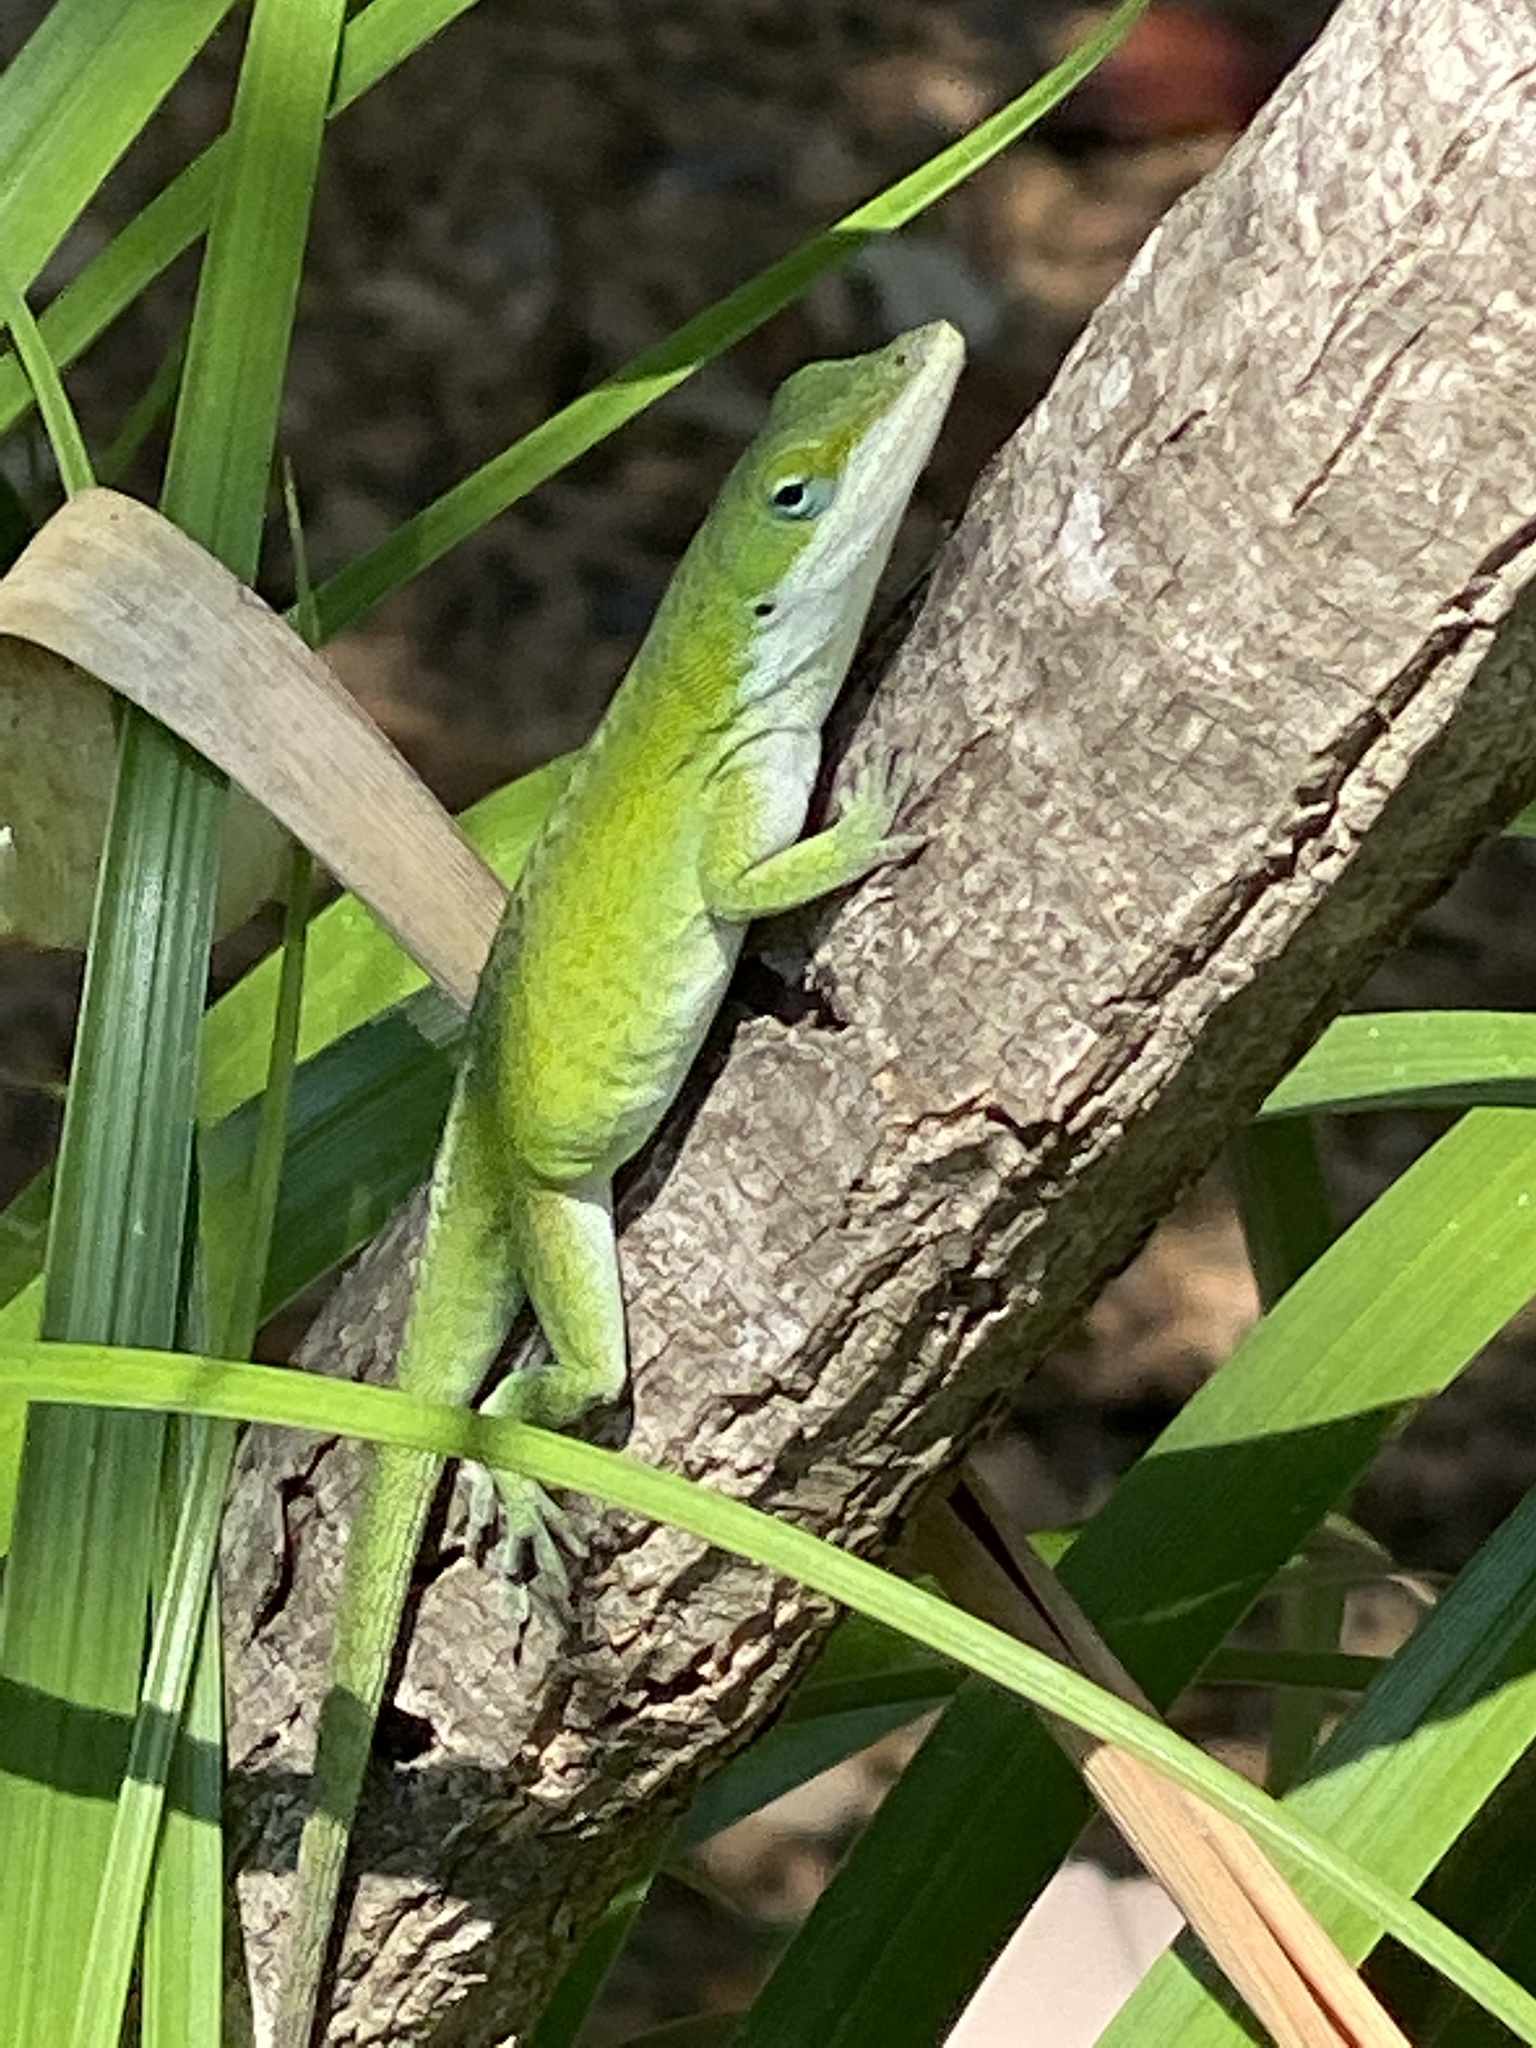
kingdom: Animalia
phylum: Chordata
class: Squamata
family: Dactyloidae
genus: Anolis
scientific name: Anolis carolinensis
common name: Green anole
